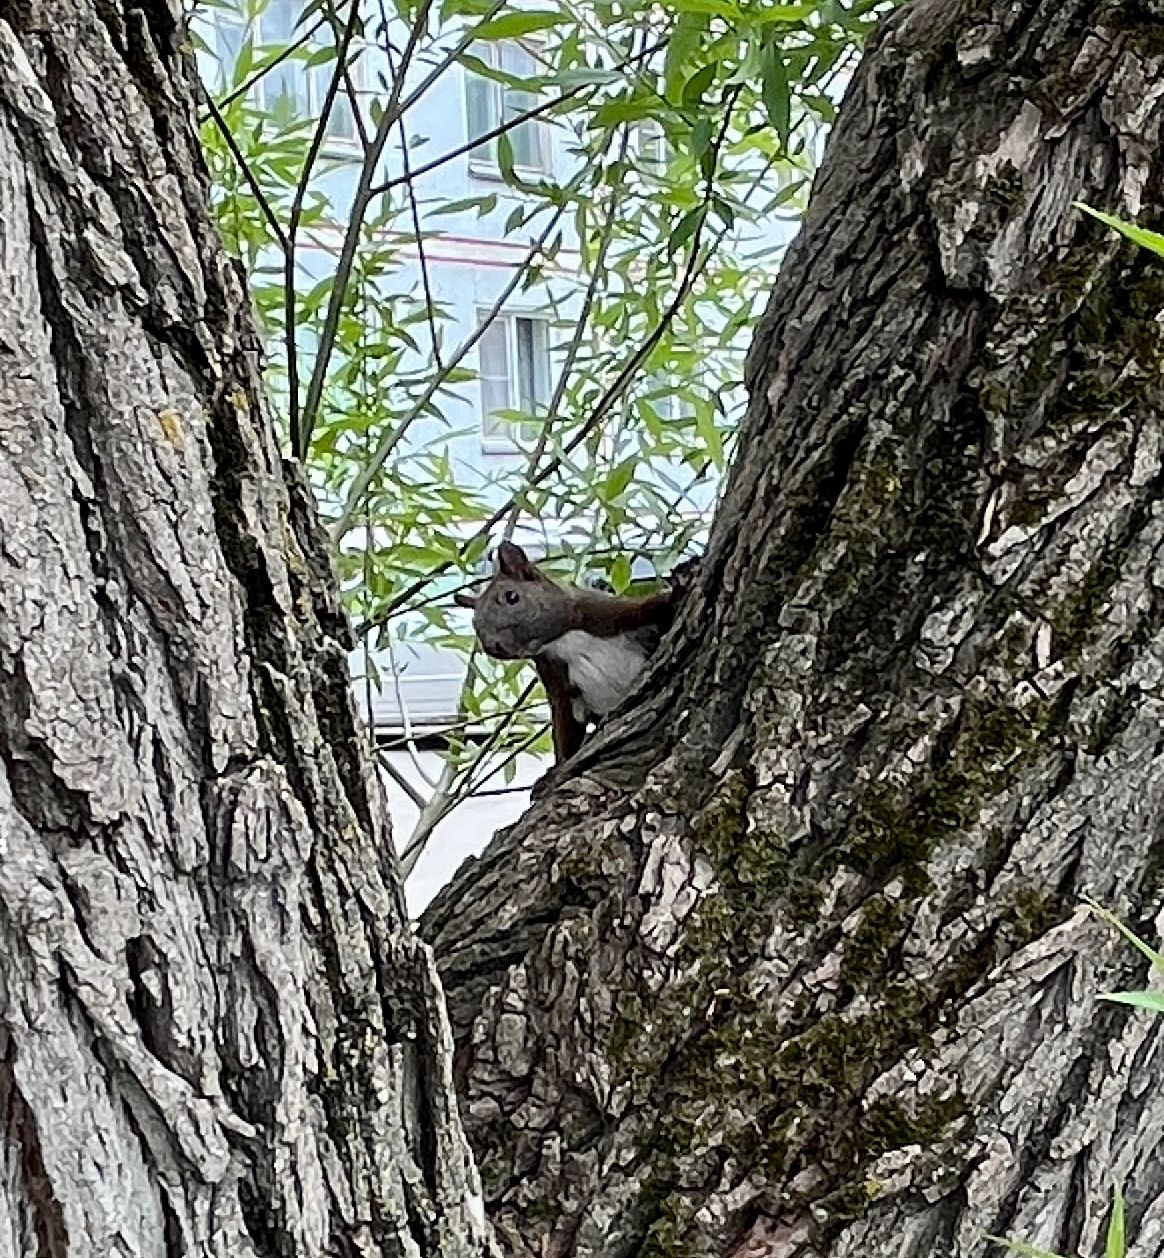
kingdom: Animalia
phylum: Chordata
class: Mammalia
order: Rodentia
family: Sciuridae
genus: Sciurus
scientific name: Sciurus vulgaris
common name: Eurasian red squirrel
